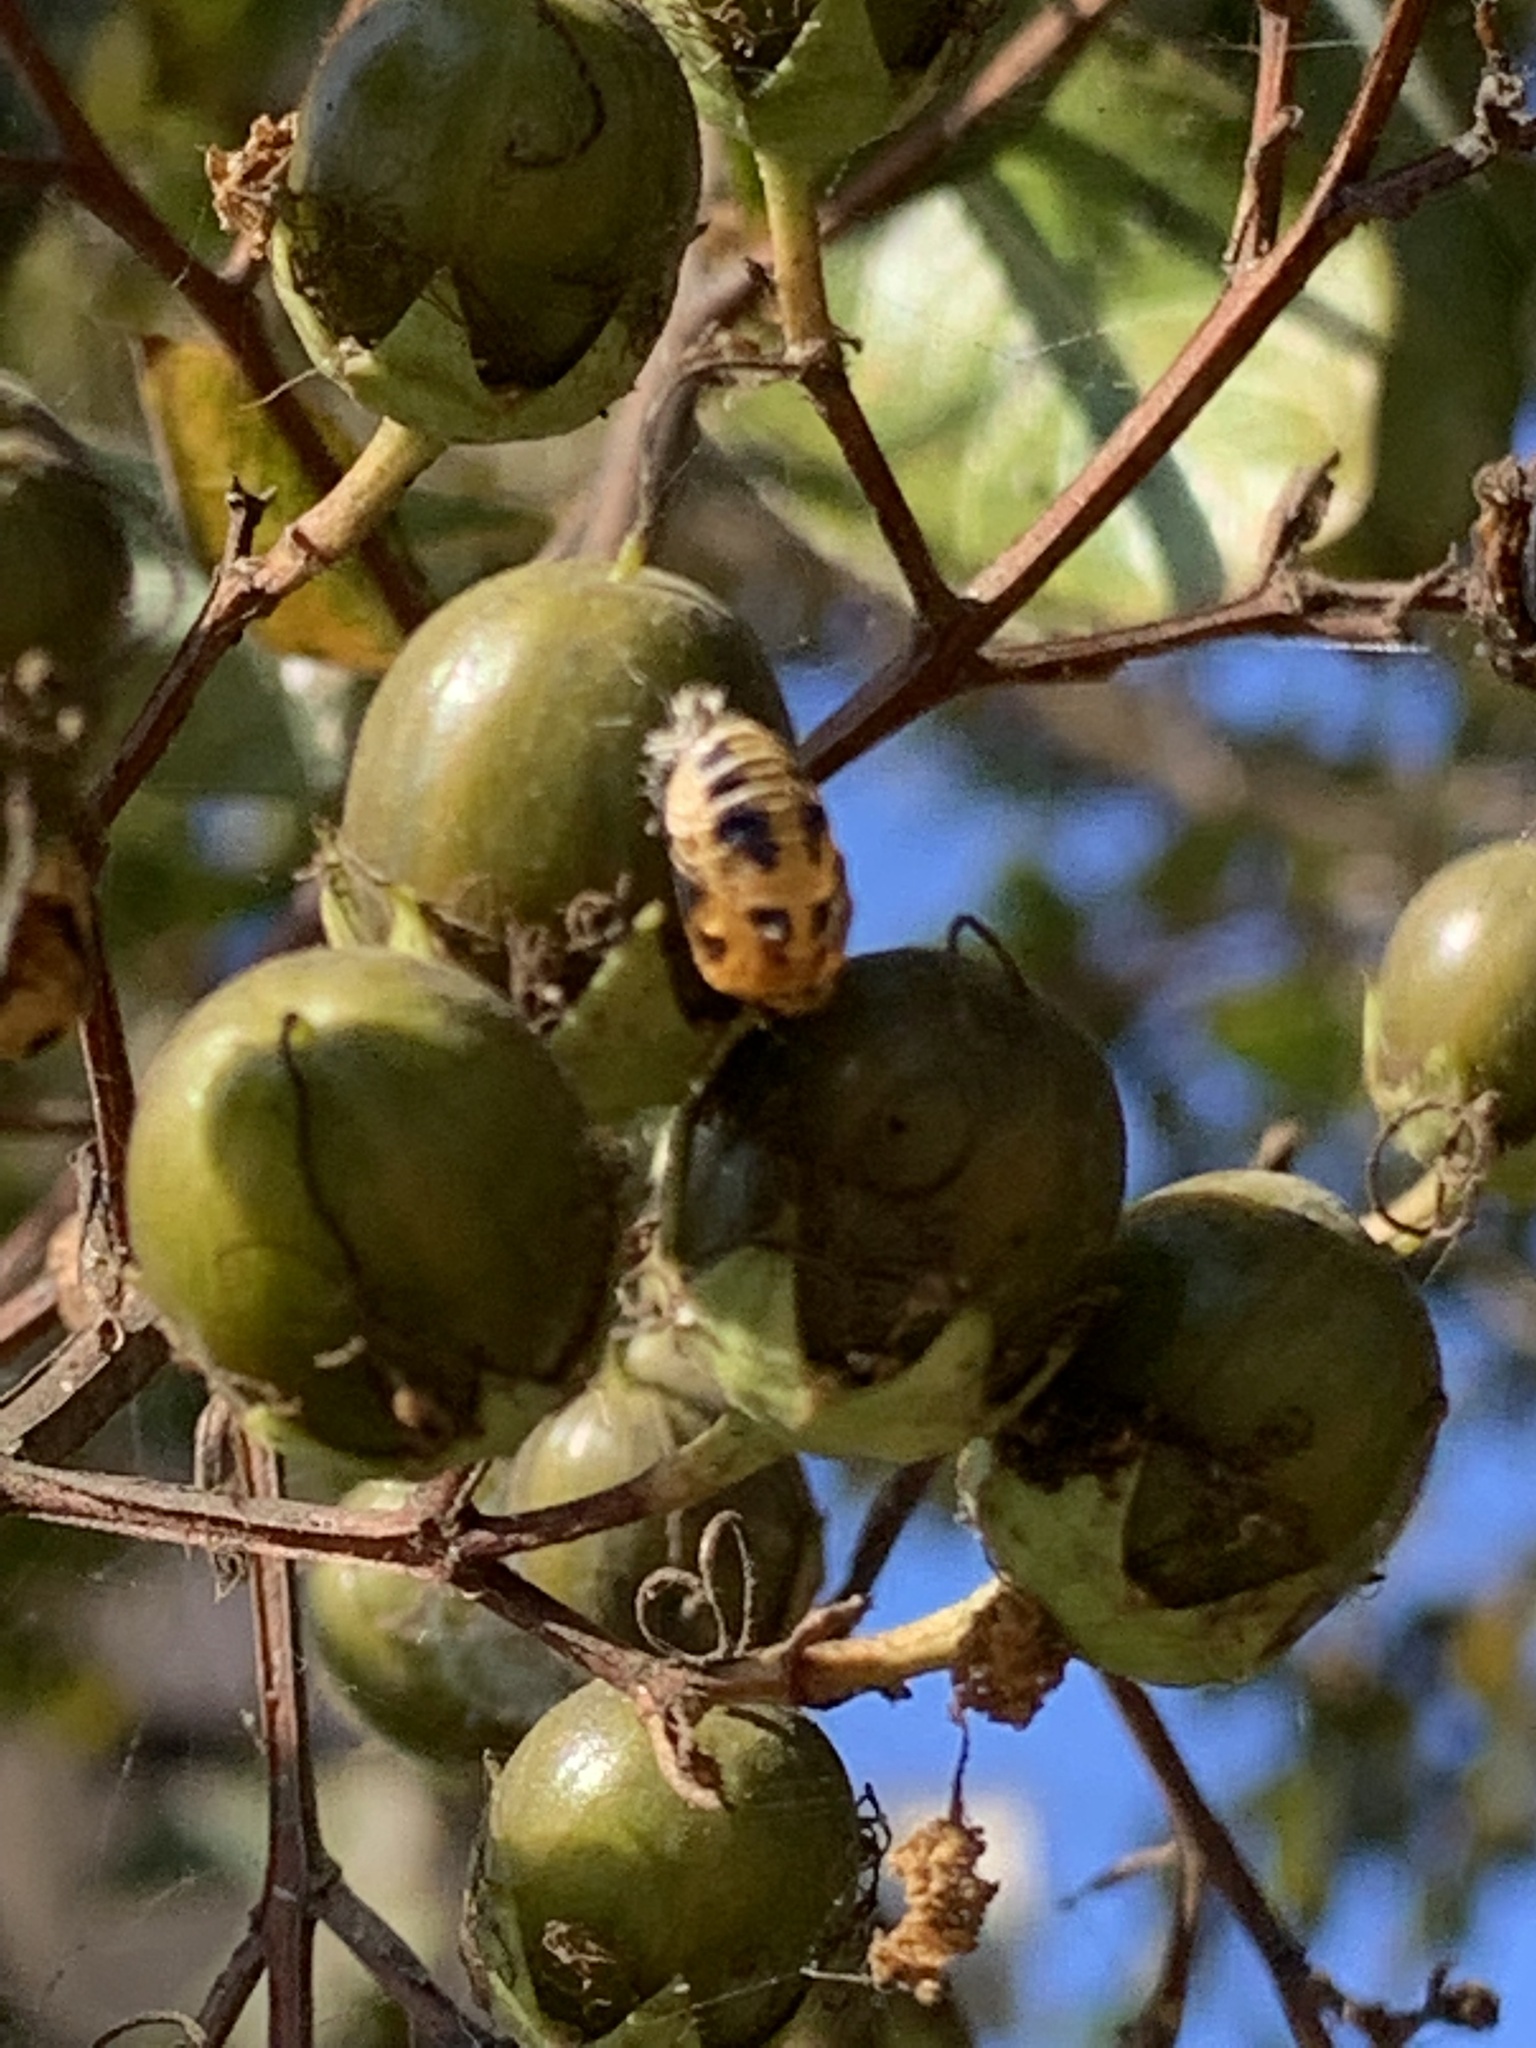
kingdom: Animalia
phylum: Arthropoda
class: Insecta
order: Coleoptera
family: Coccinellidae
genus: Harmonia
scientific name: Harmonia axyridis
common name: Harlequin ladybird
